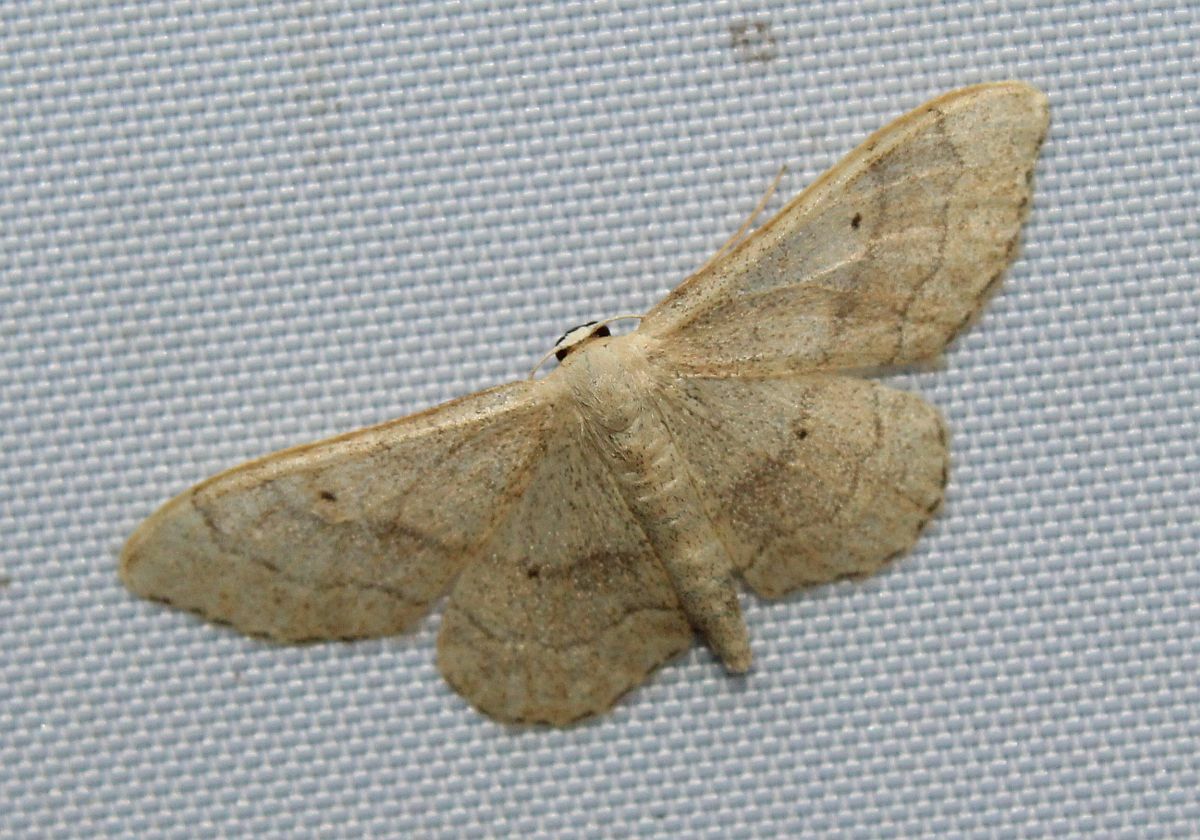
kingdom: Animalia
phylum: Arthropoda
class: Insecta
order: Lepidoptera
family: Geometridae
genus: Idaea
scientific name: Idaea aversata
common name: Riband wave
